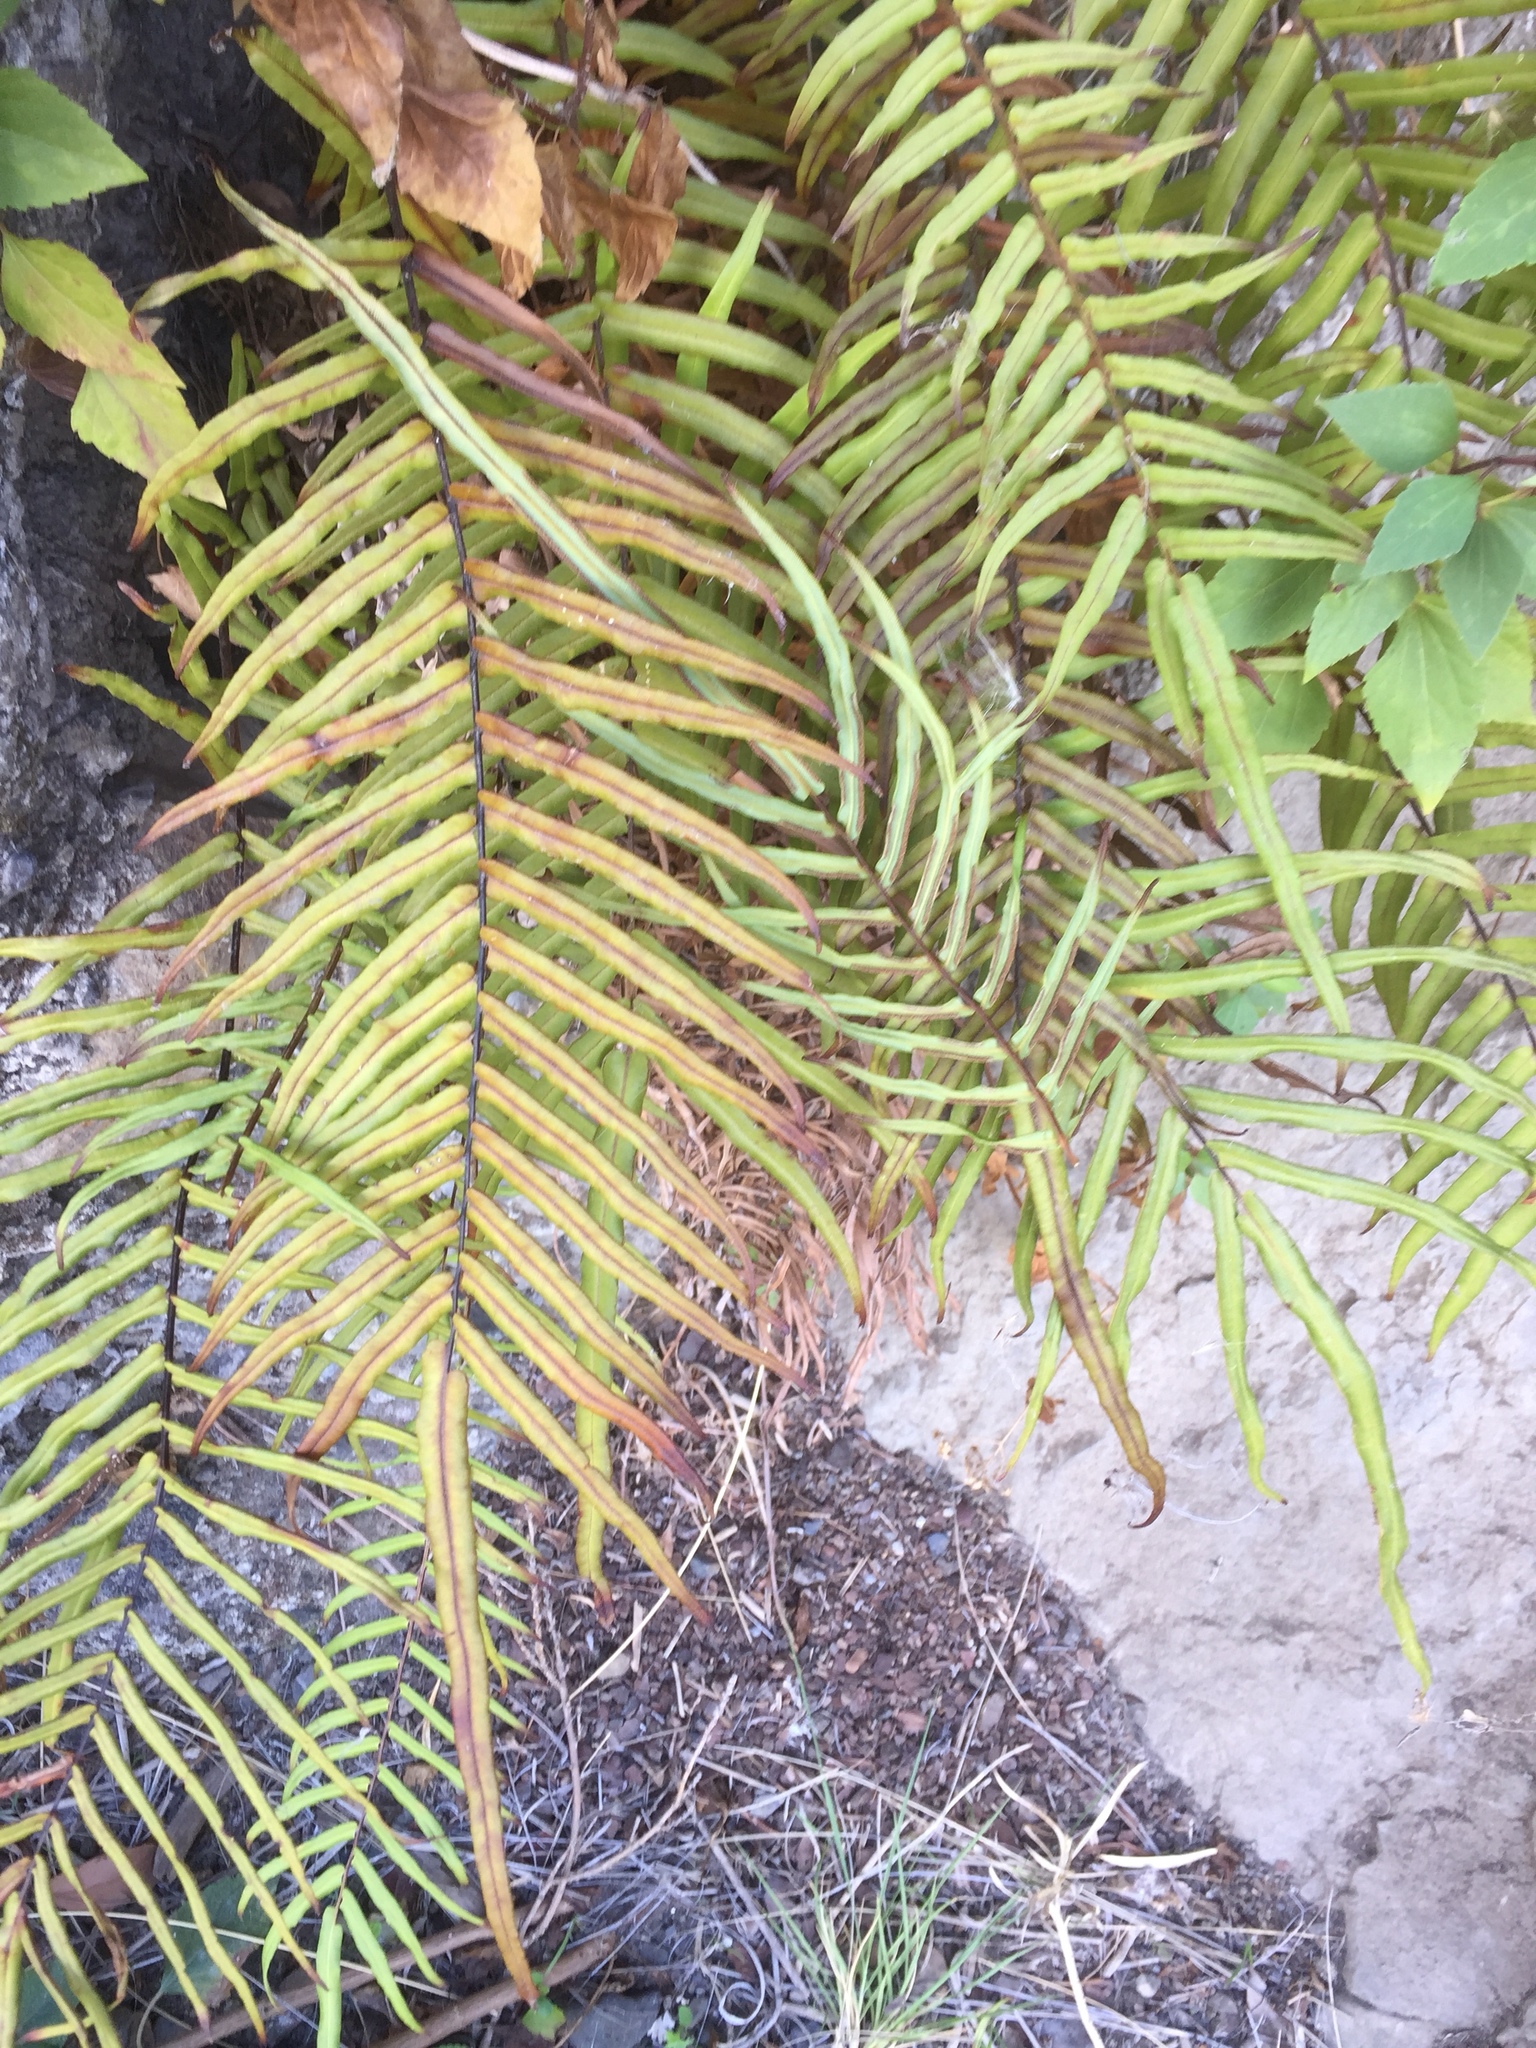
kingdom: Plantae
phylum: Tracheophyta
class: Polypodiopsida
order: Polypodiales
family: Pteridaceae
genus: Pteris
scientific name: Pteris vittata
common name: Ladder brake
